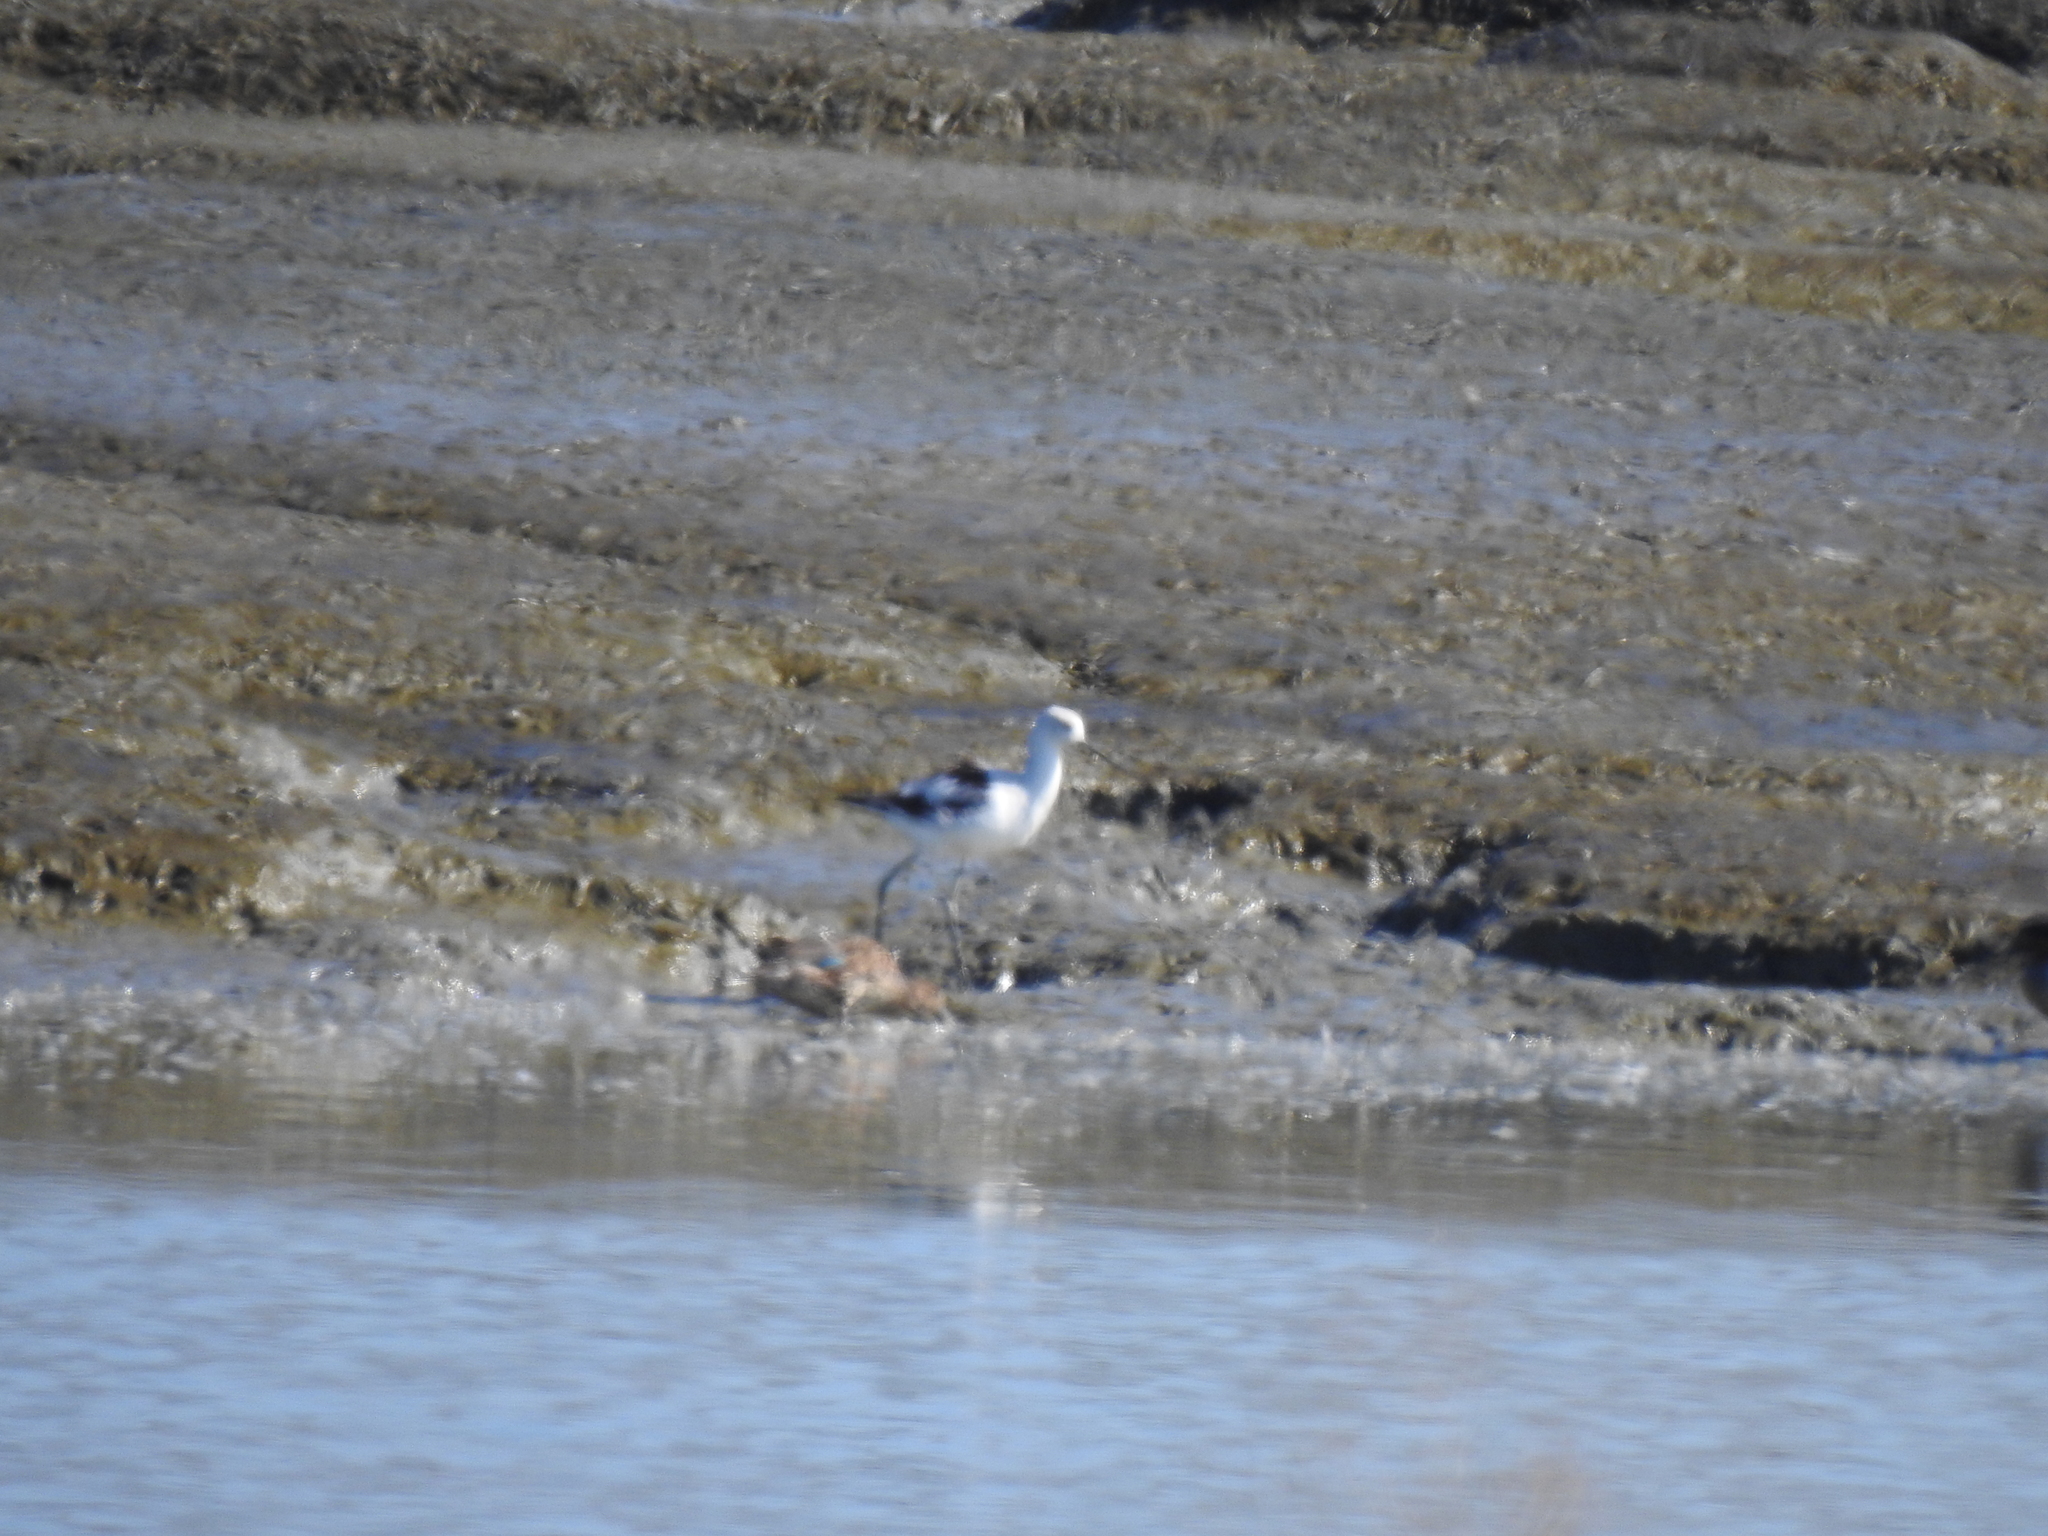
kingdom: Animalia
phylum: Chordata
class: Aves
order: Charadriiformes
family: Recurvirostridae
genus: Recurvirostra
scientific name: Recurvirostra americana
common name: American avocet
